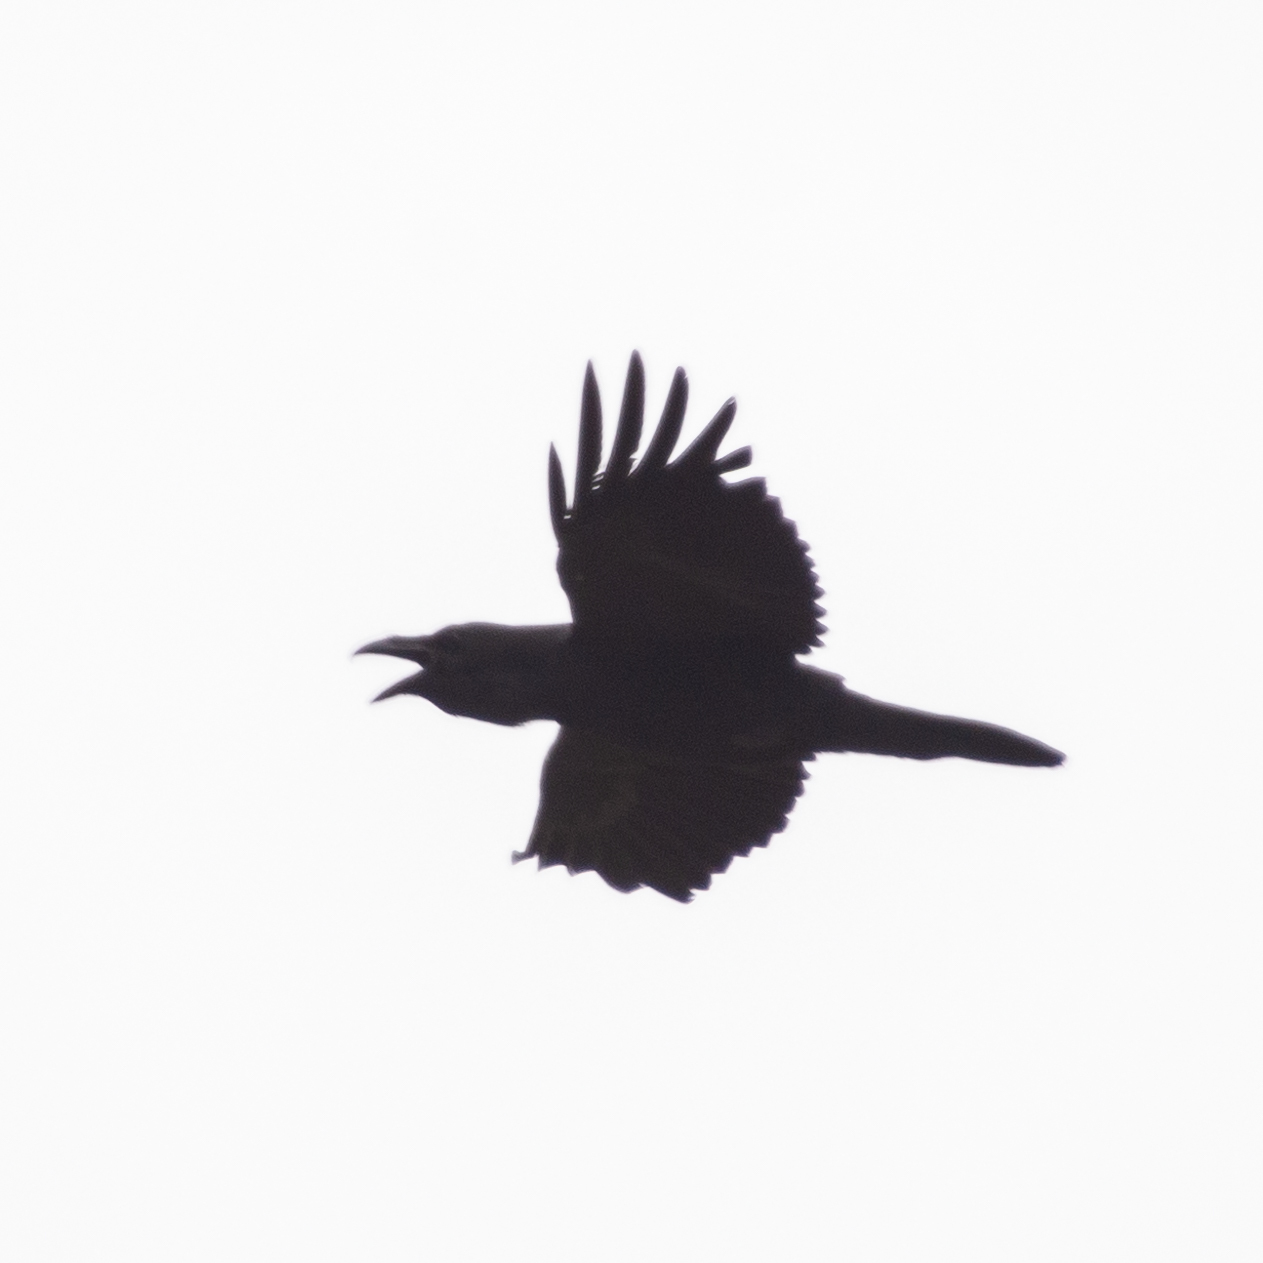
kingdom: Animalia
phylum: Chordata
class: Aves
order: Passeriformes
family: Corvidae
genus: Corvus
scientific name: Corvus corax
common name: Common raven
